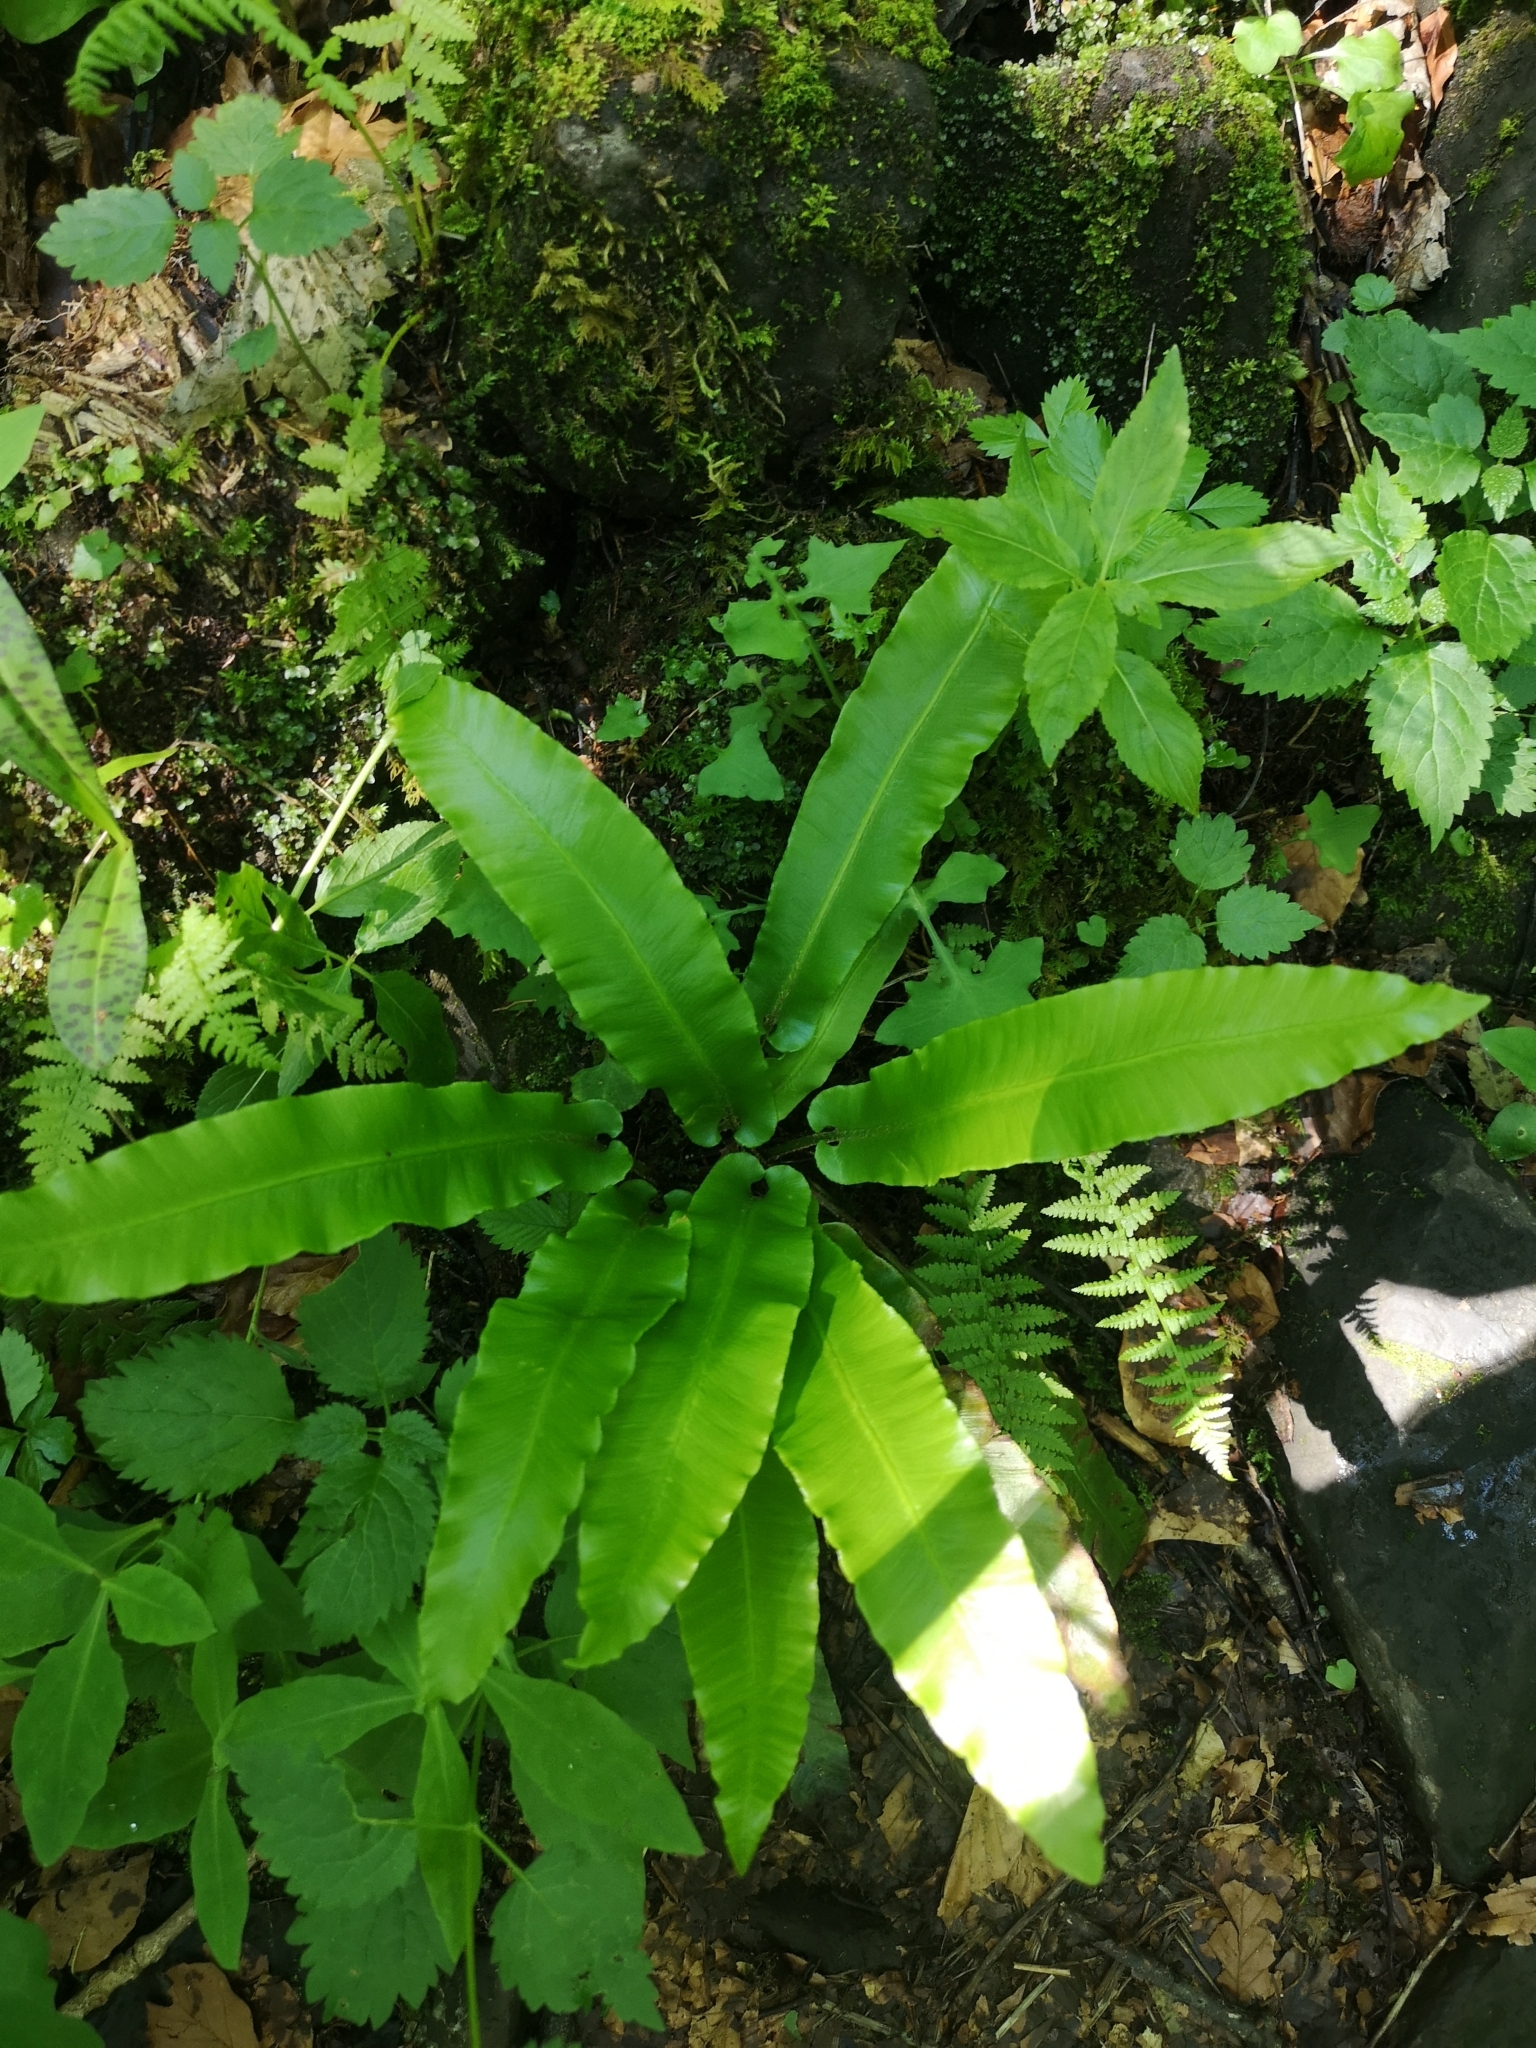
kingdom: Plantae
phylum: Tracheophyta
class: Polypodiopsida
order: Polypodiales
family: Aspleniaceae
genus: Asplenium
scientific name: Asplenium scolopendrium
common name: Hart's-tongue fern
